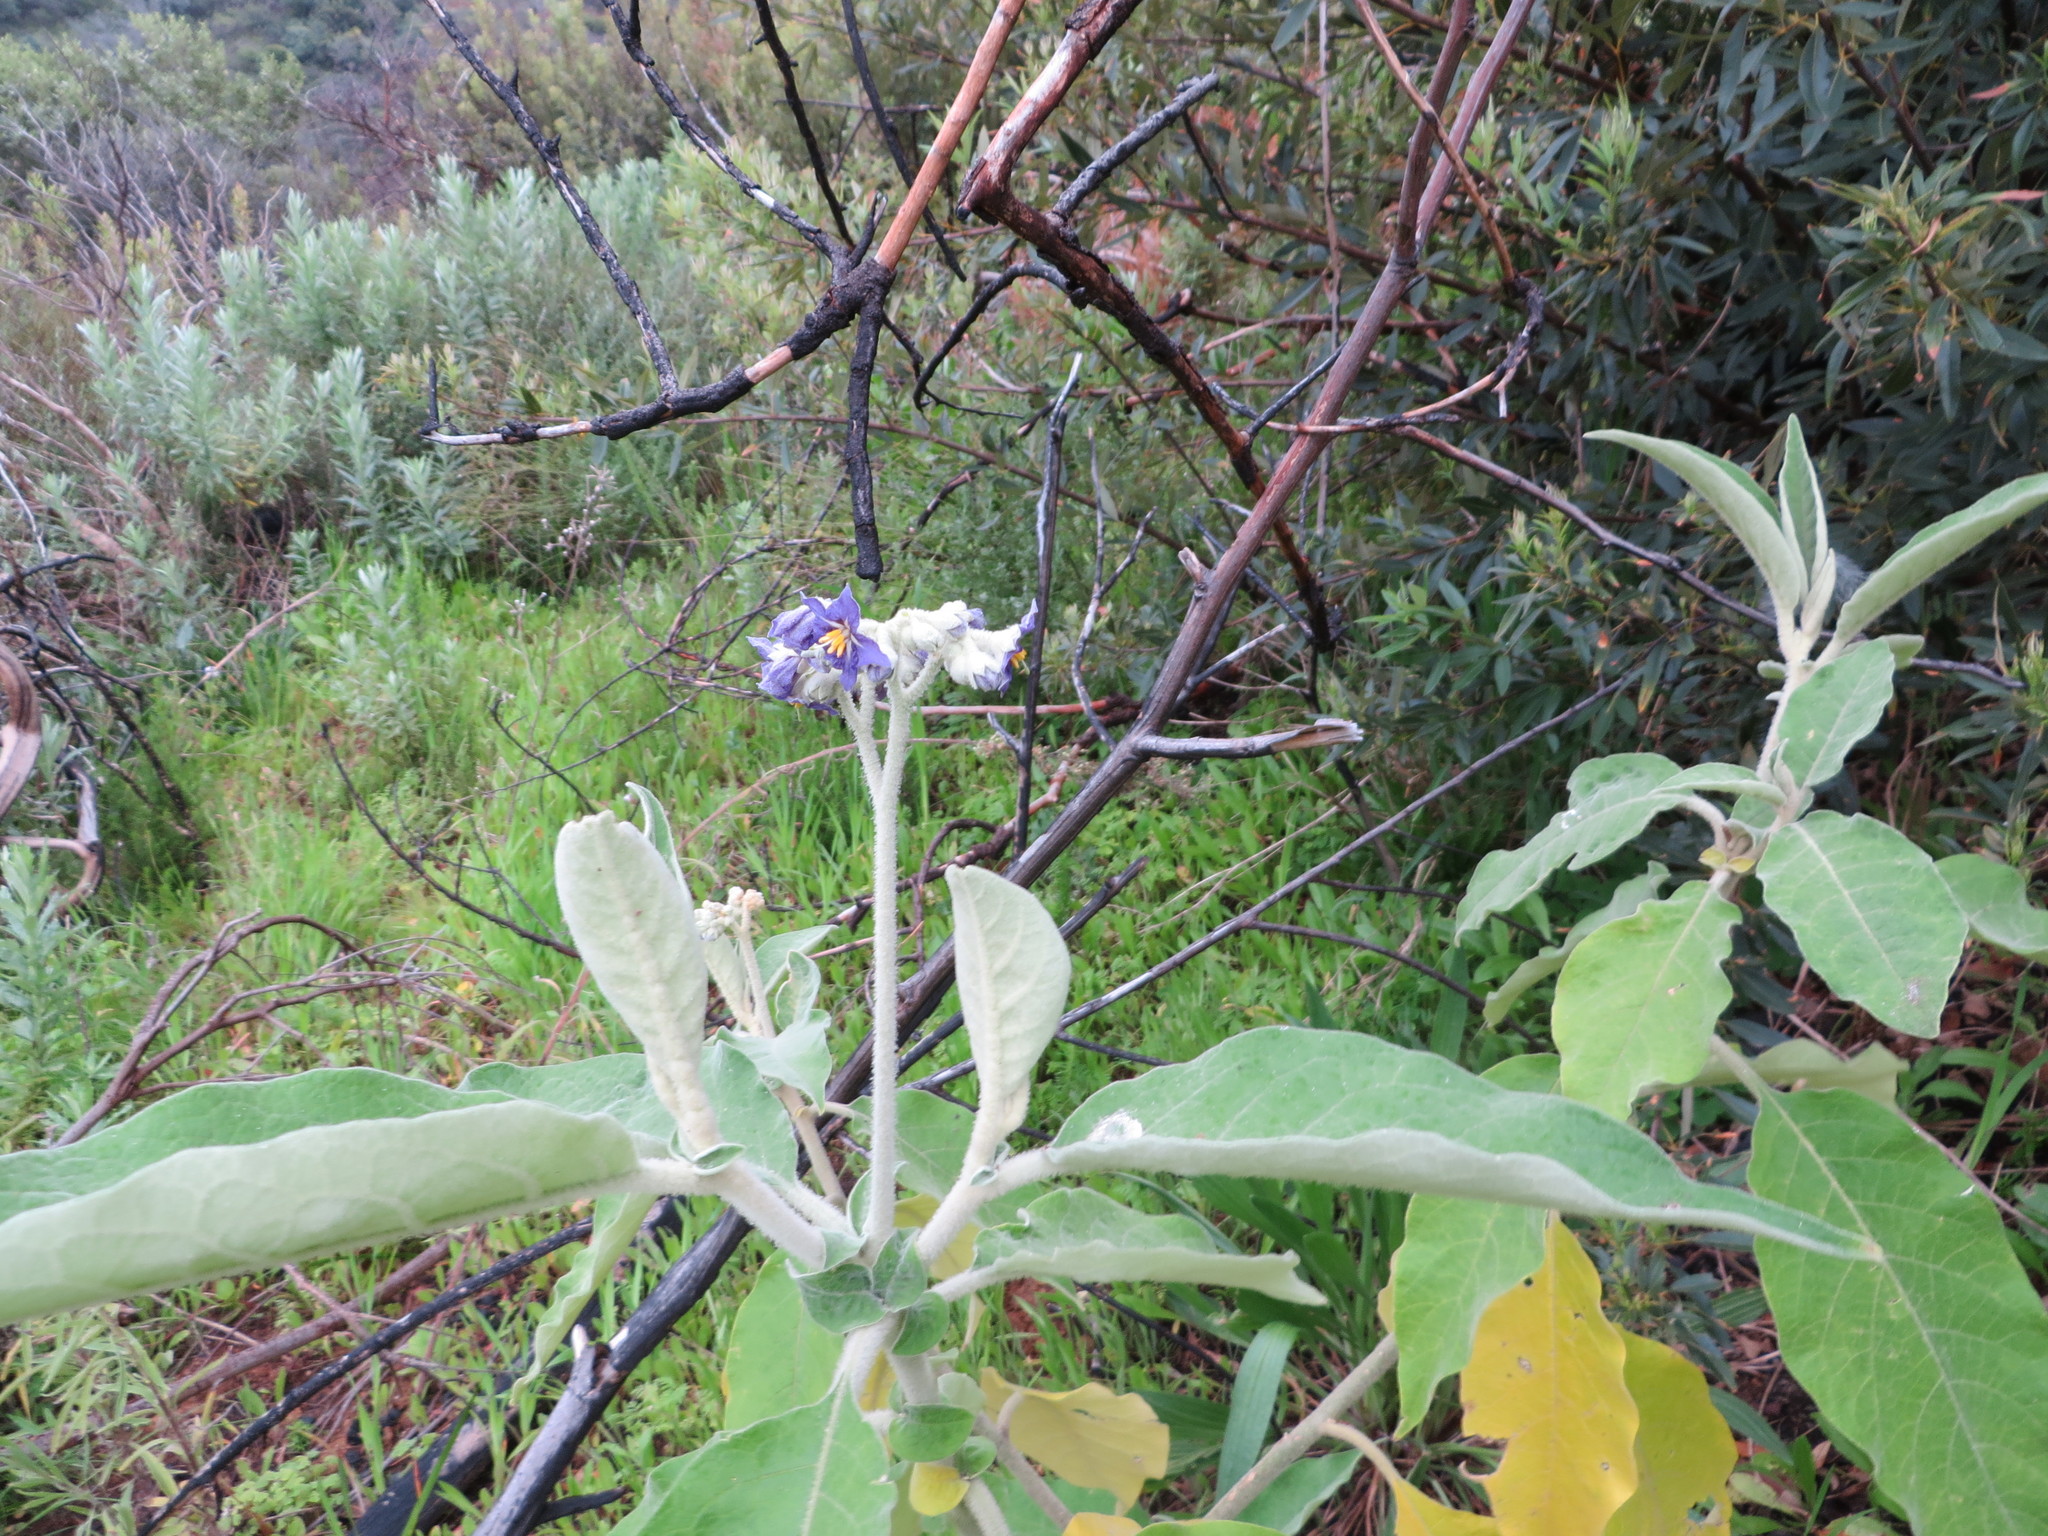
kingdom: Plantae
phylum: Tracheophyta
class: Magnoliopsida
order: Solanales
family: Solanaceae
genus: Solanum
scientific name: Solanum mauritianum
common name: Earleaf nightshade
